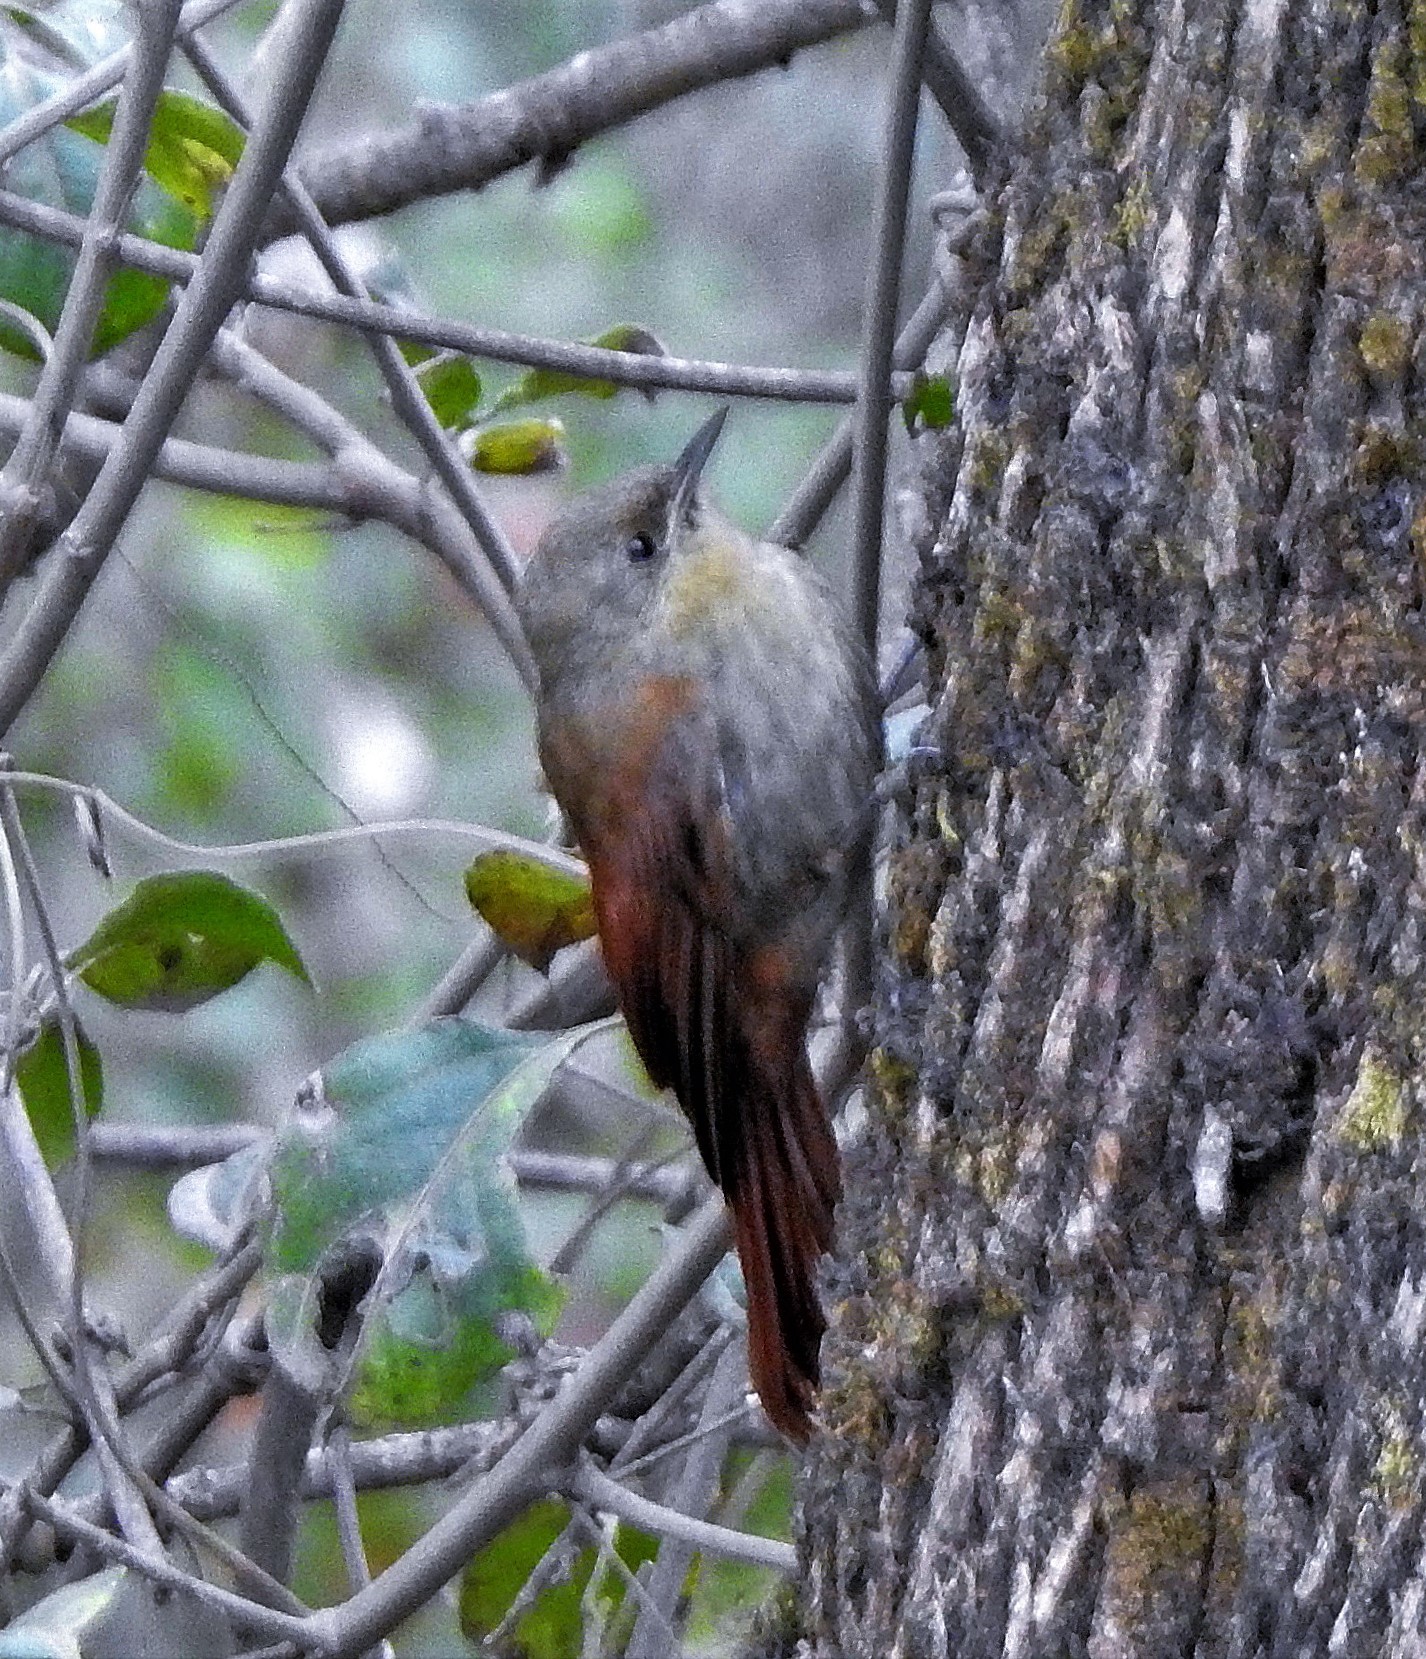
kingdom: Animalia
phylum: Chordata
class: Aves
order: Passeriformes
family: Furnariidae
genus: Sittasomus
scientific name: Sittasomus griseicapillus
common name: Olivaceous woodcreeper
